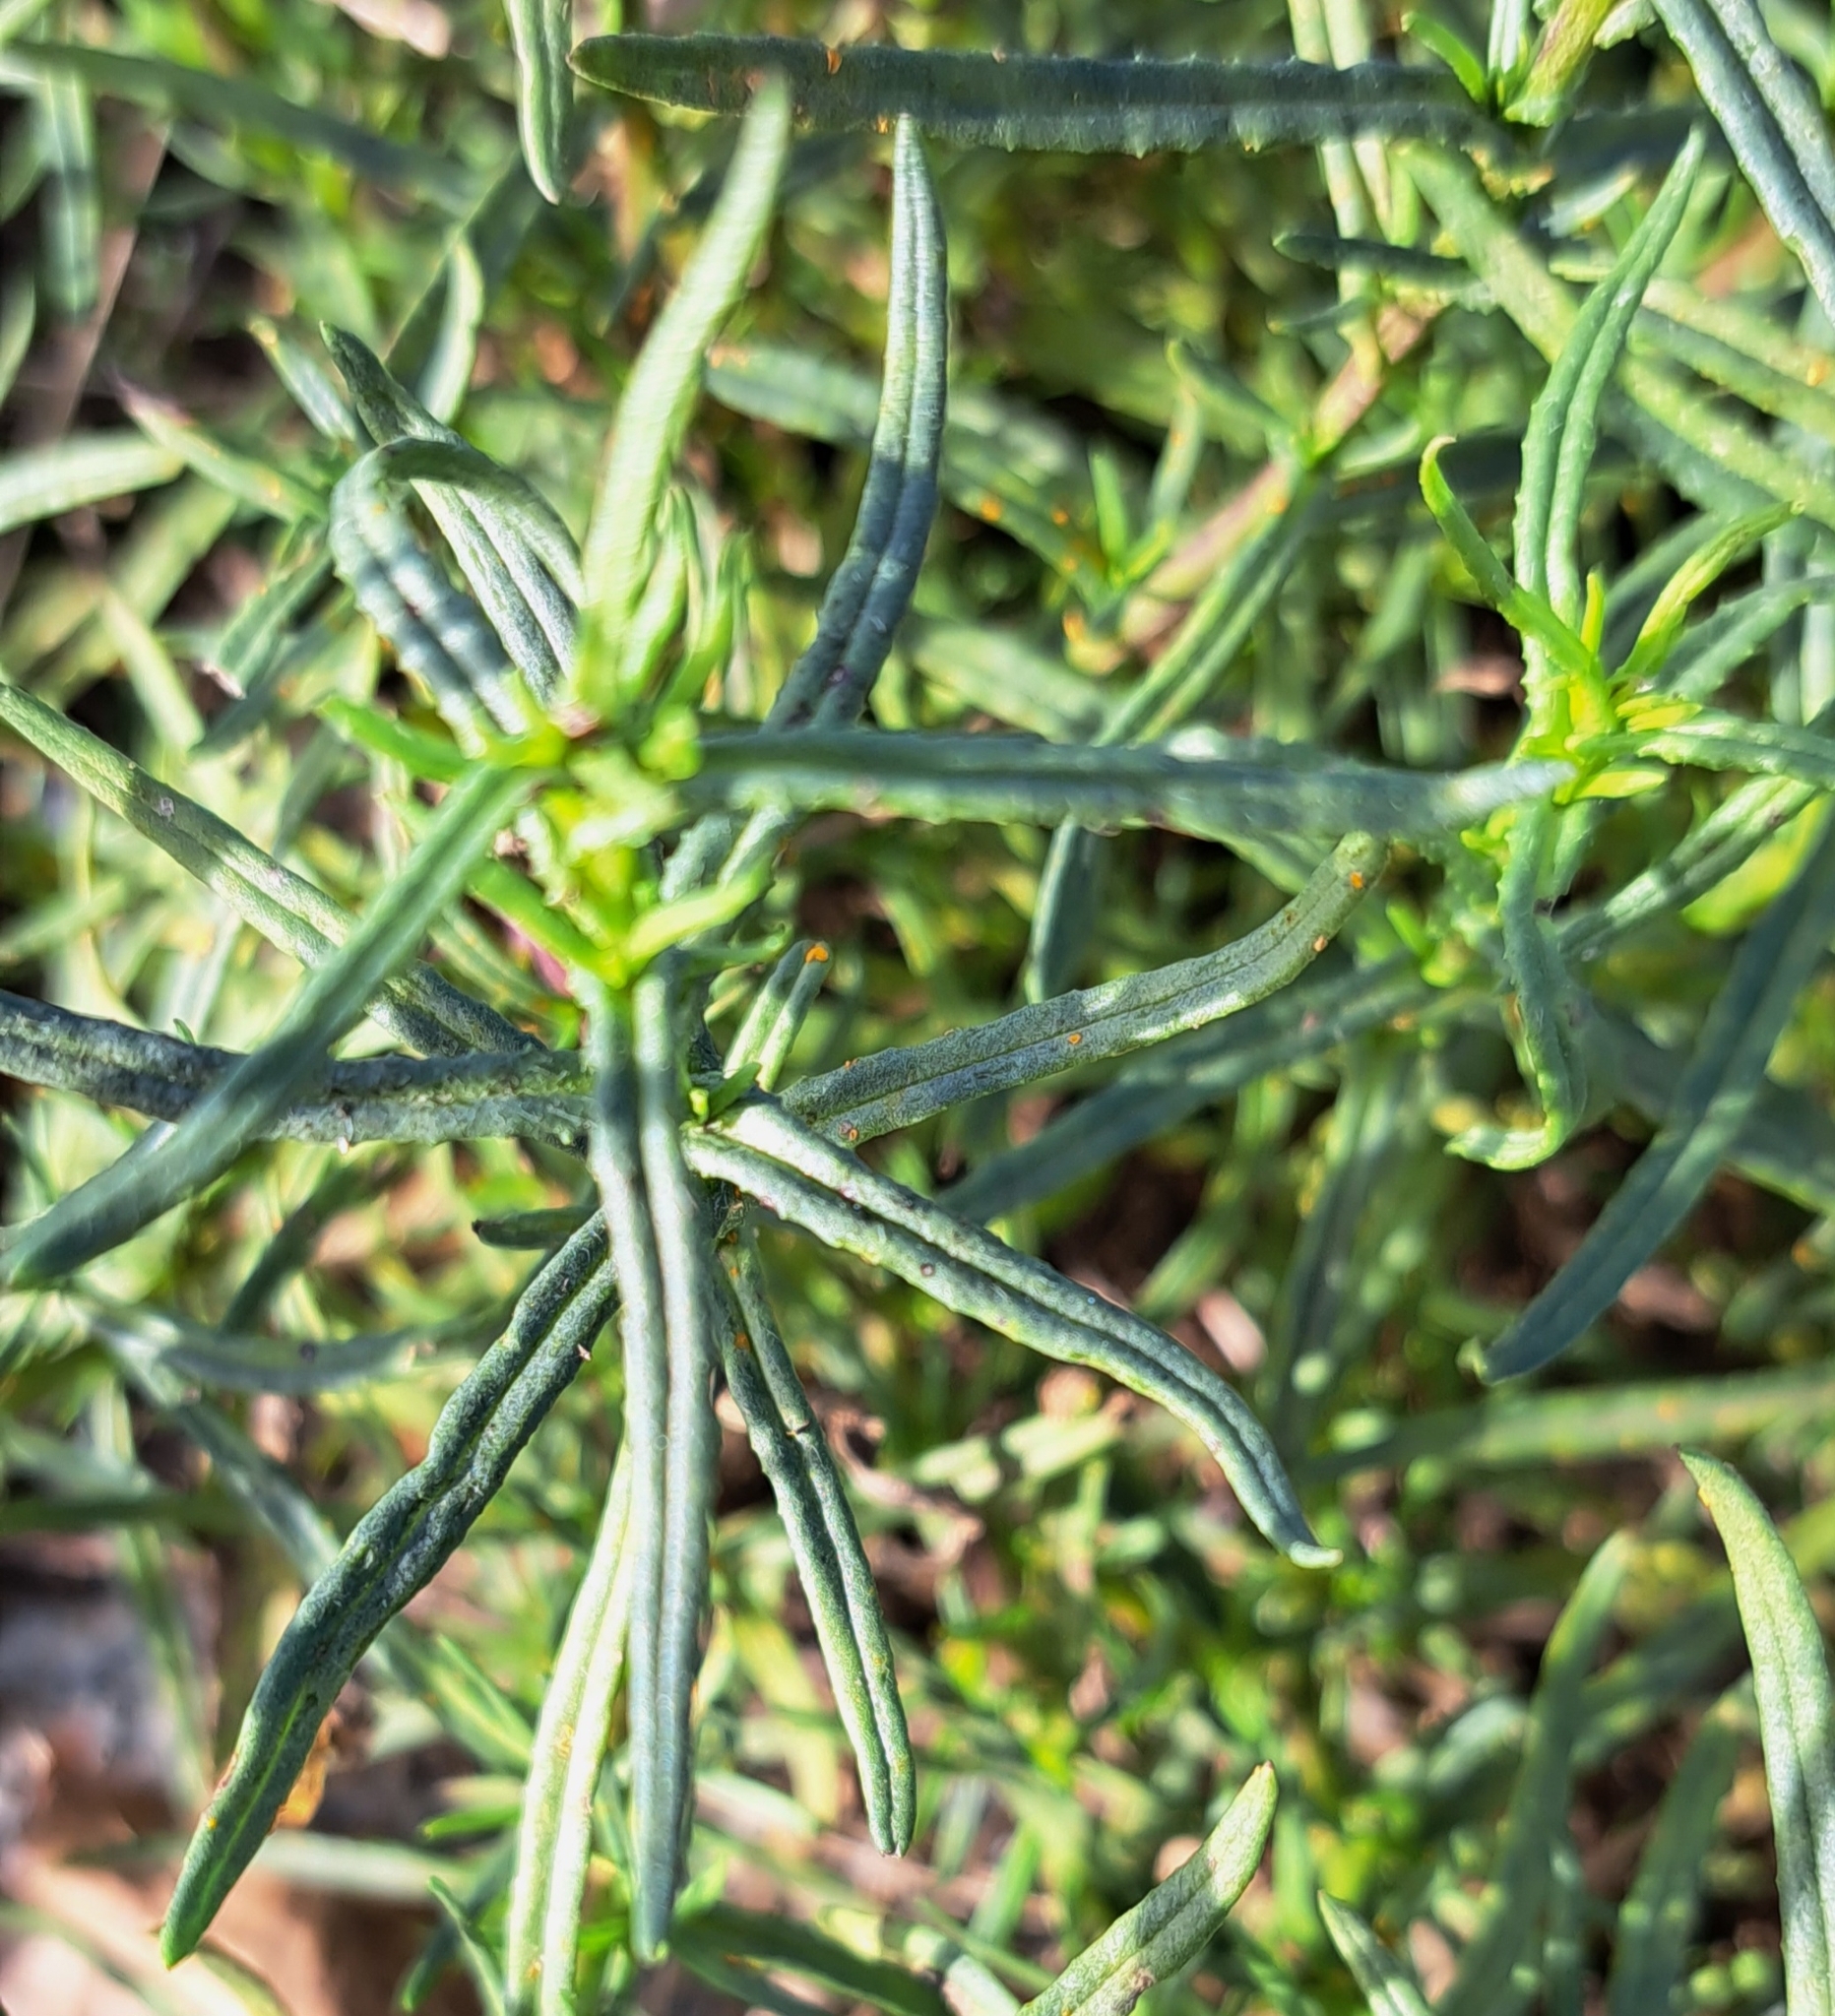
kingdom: Plantae
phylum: Tracheophyta
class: Magnoliopsida
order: Asterales
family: Asteraceae
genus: Senecio
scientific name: Senecio inaequidens
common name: Narrow-leaved ragwort
